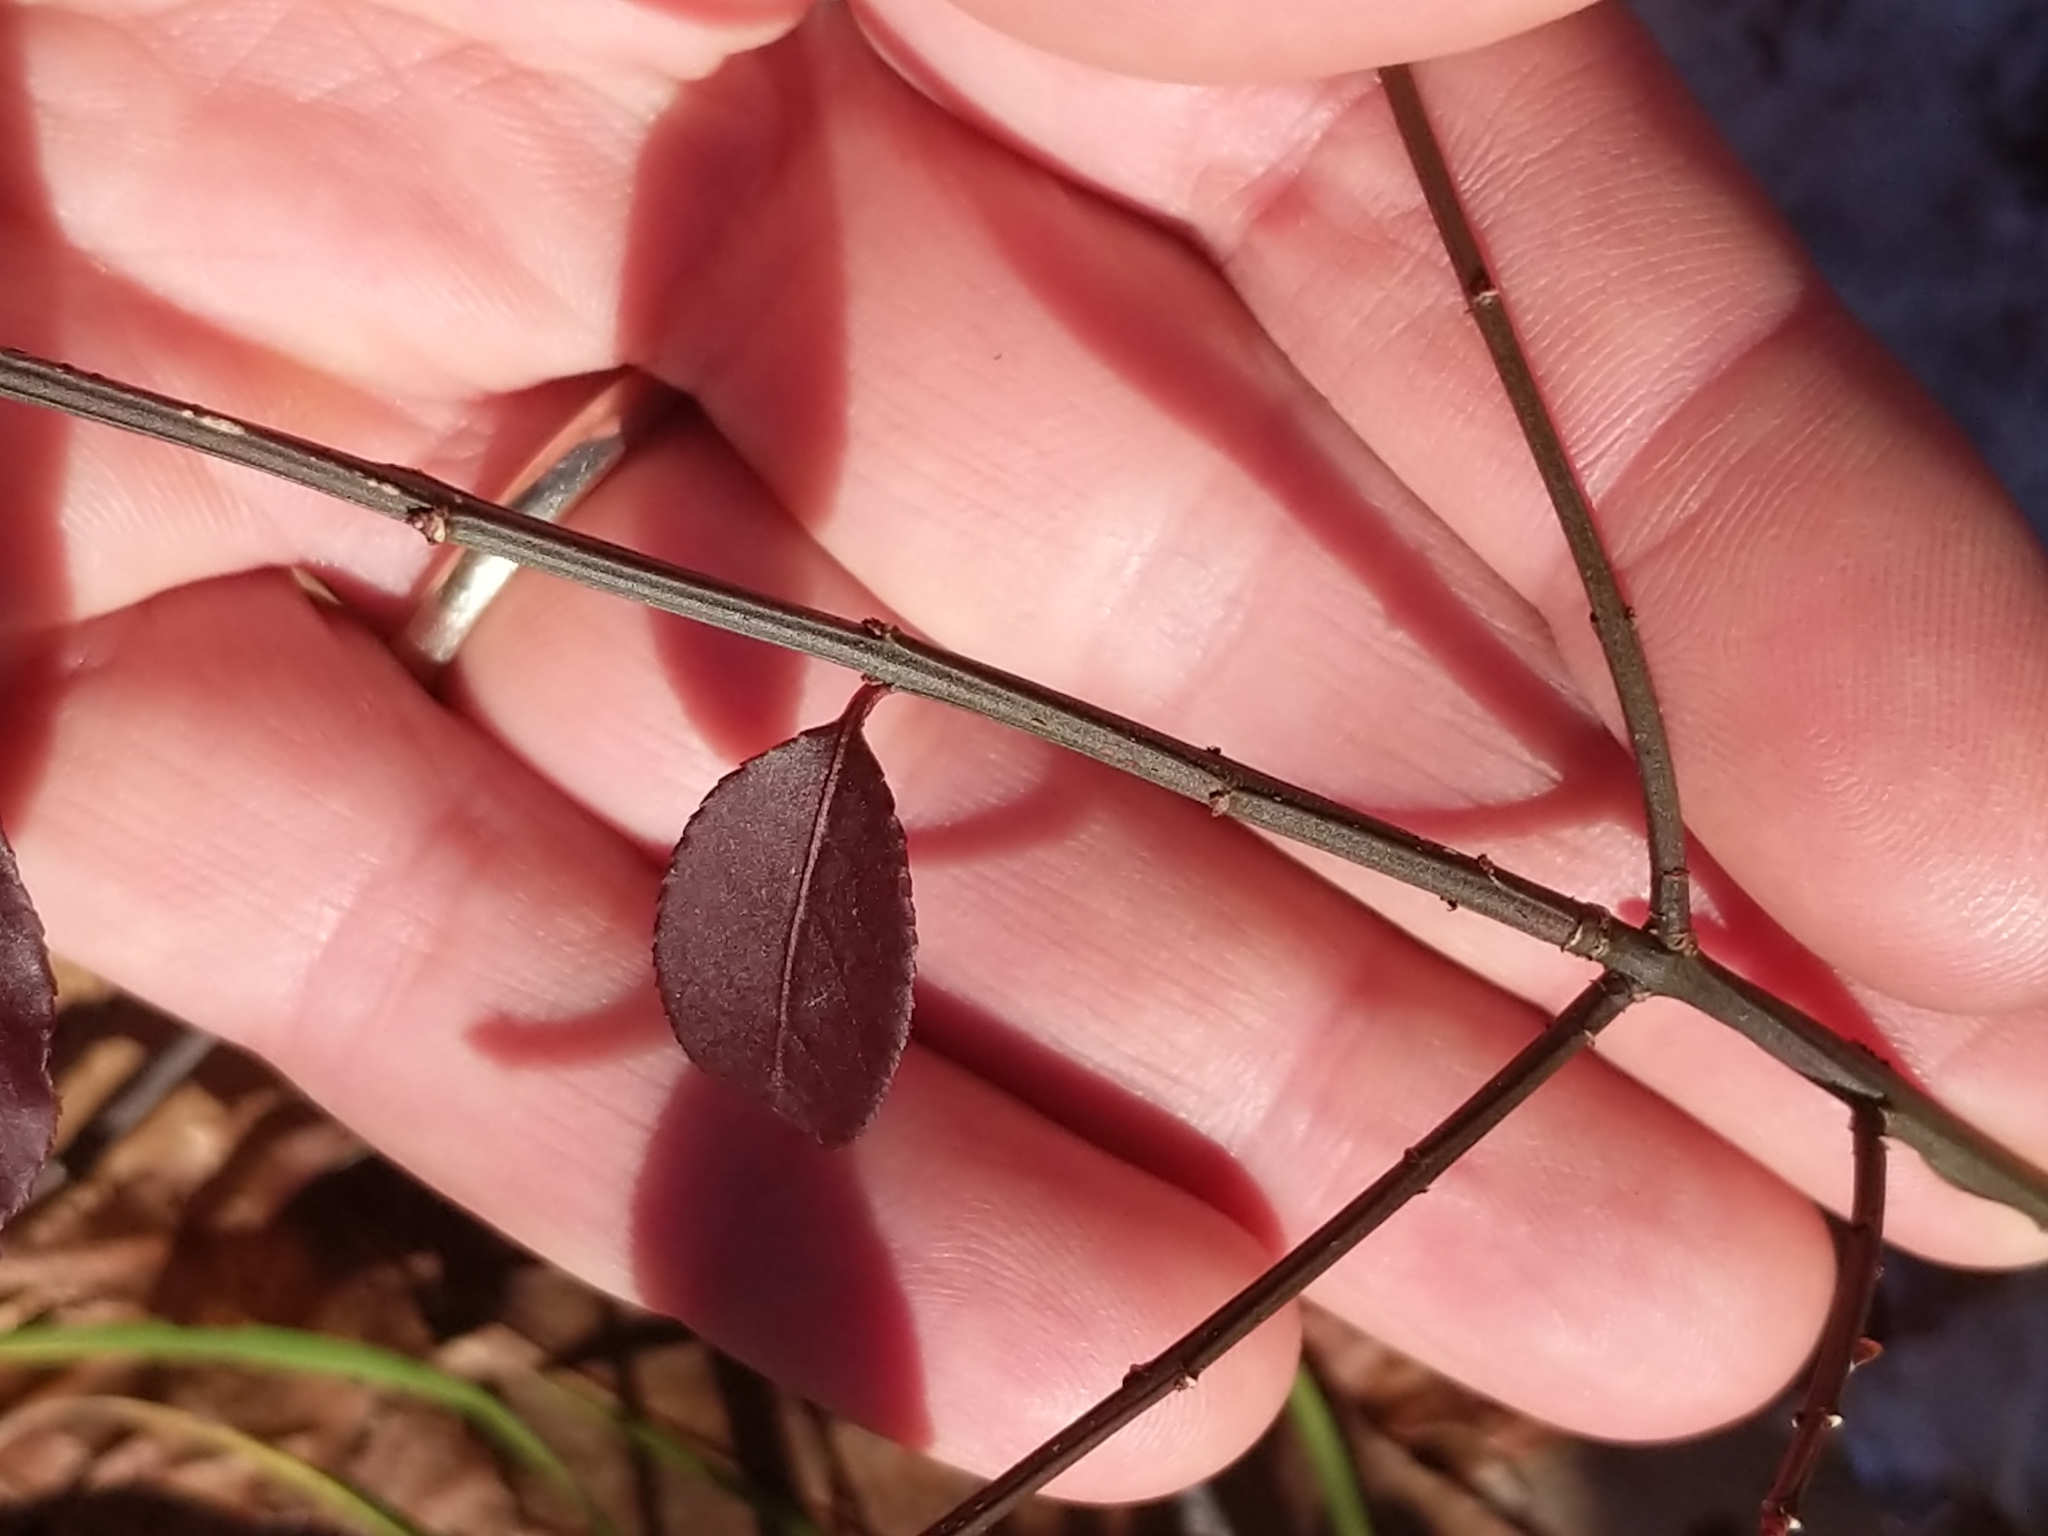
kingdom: Plantae
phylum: Tracheophyta
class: Magnoliopsida
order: Celastrales
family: Celastraceae
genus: Euonymus
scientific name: Euonymus alatus
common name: Winged euonymus
